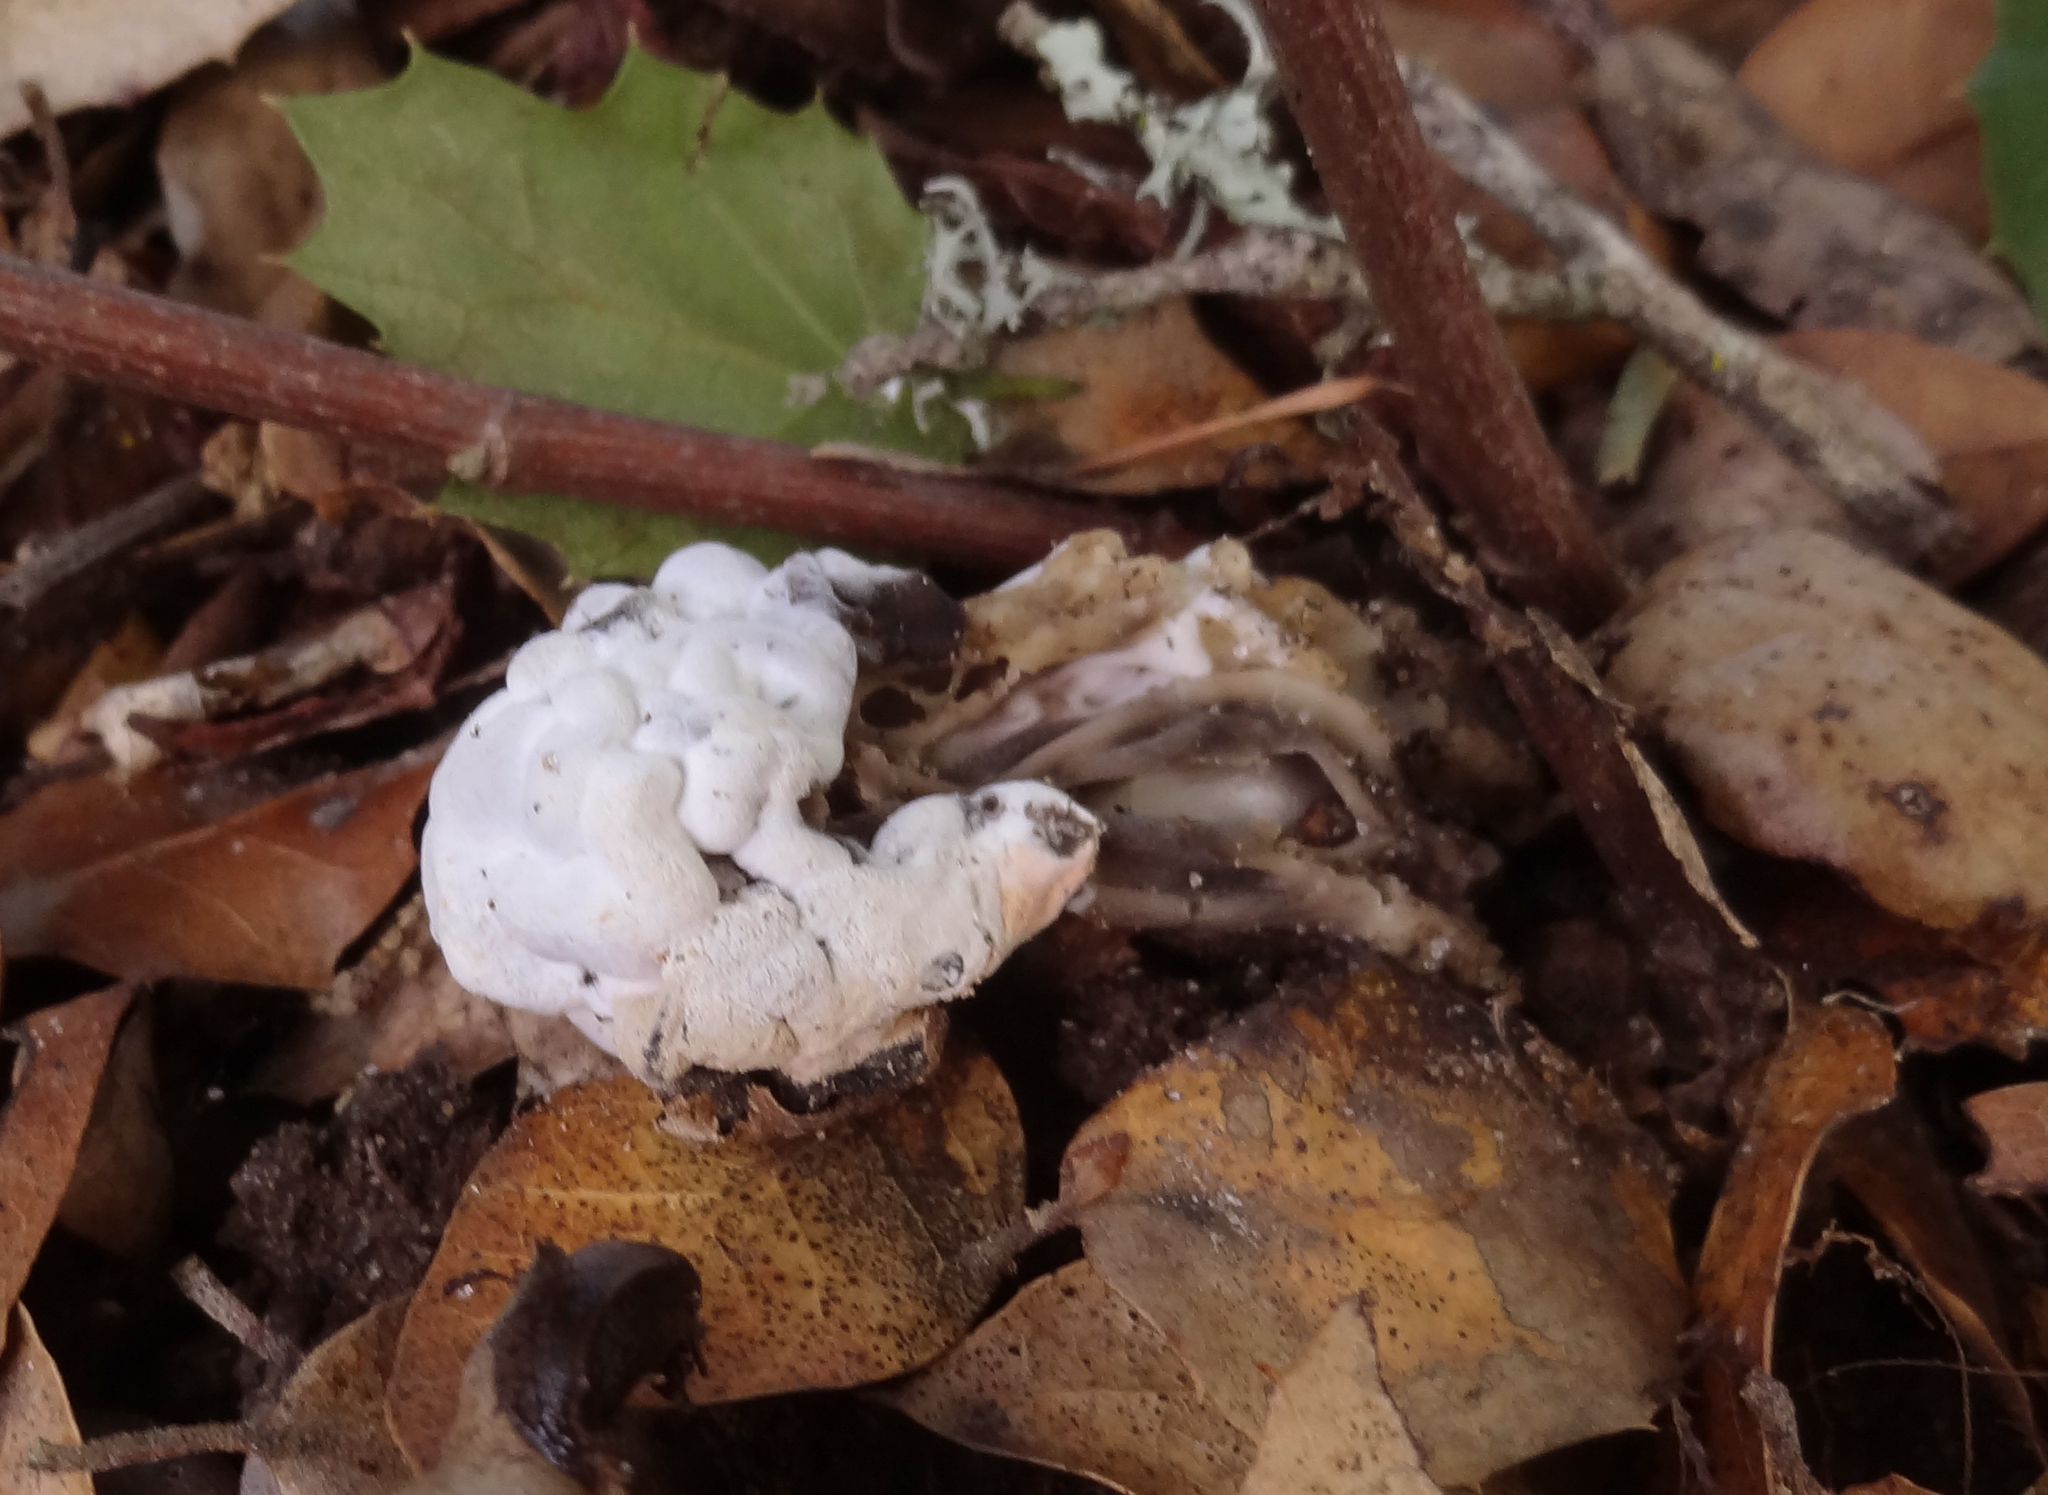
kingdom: Fungi
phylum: Ascomycota
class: Sordariomycetes
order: Hypocreales
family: Hypocreaceae
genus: Hypomyces
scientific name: Hypomyces cervinus
